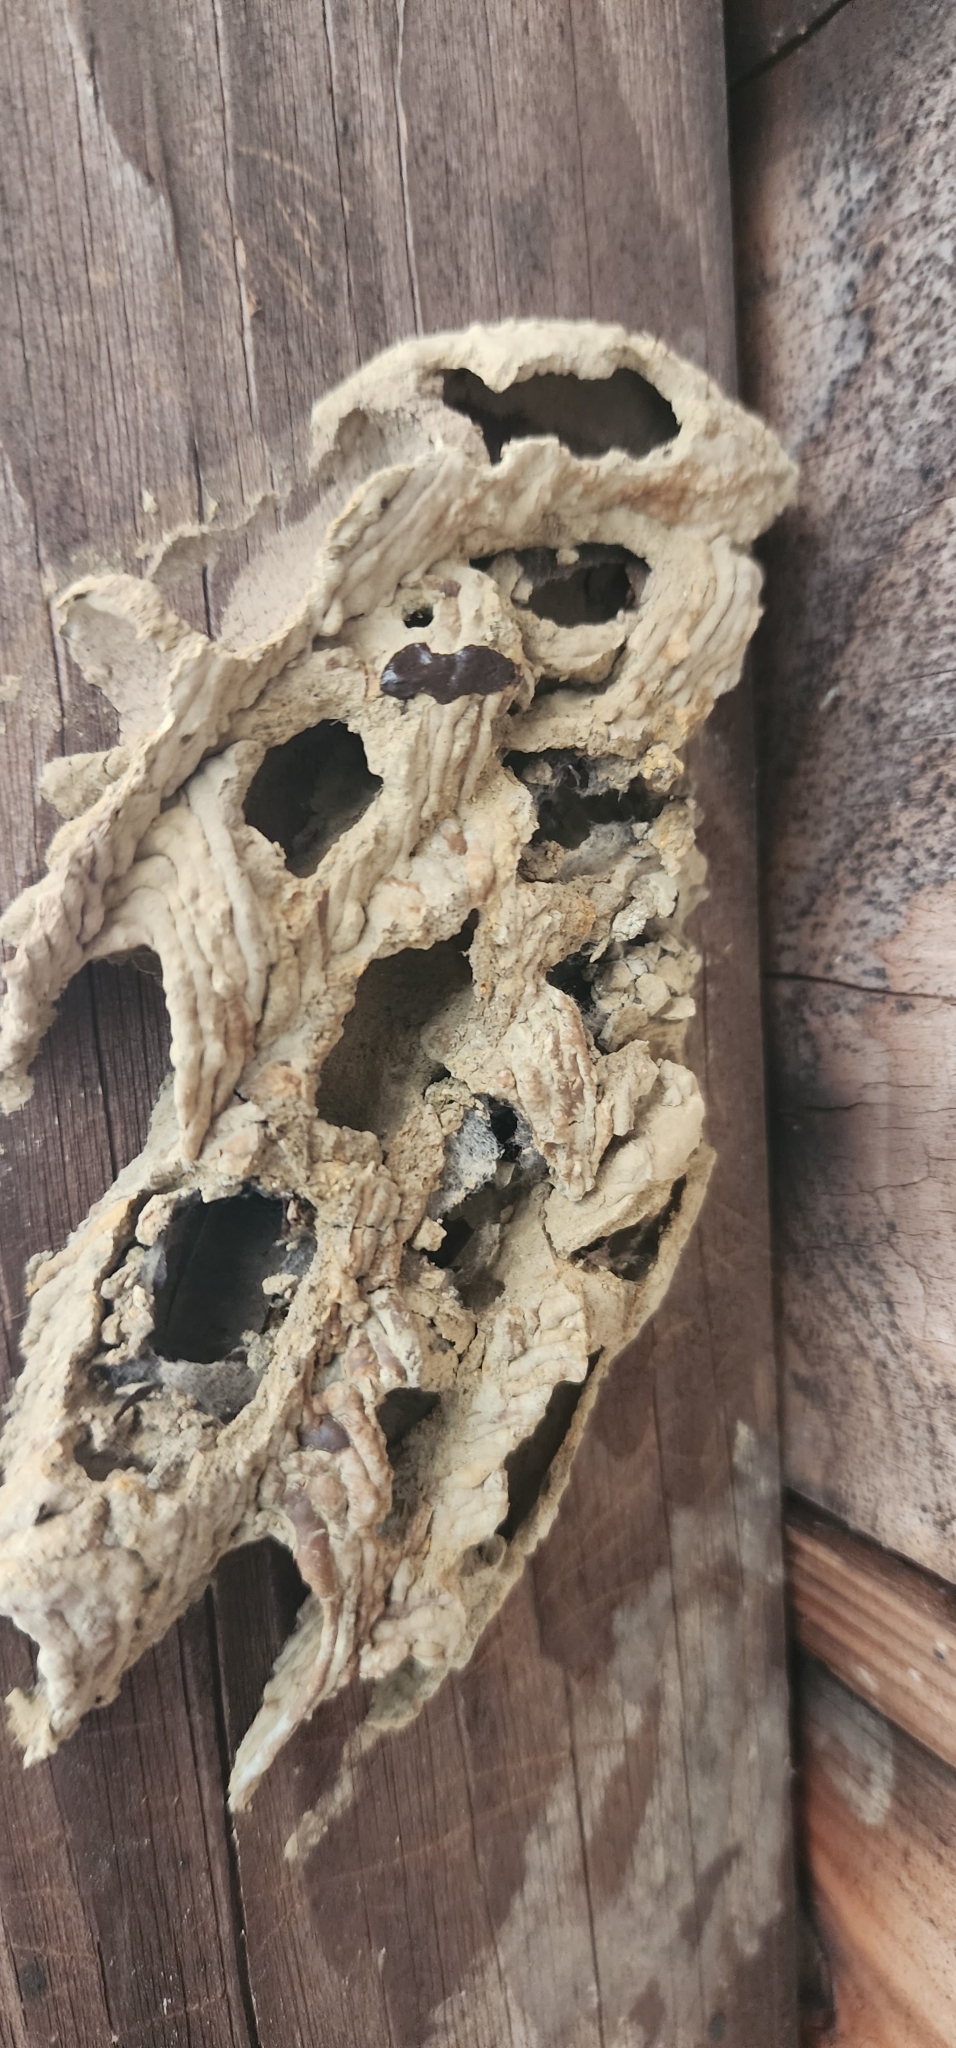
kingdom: Animalia
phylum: Arthropoda
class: Insecta
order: Hymenoptera
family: Crabronidae
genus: Trypoxylon
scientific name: Trypoxylon politum
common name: Organ-pipe mud-dauber wasp
